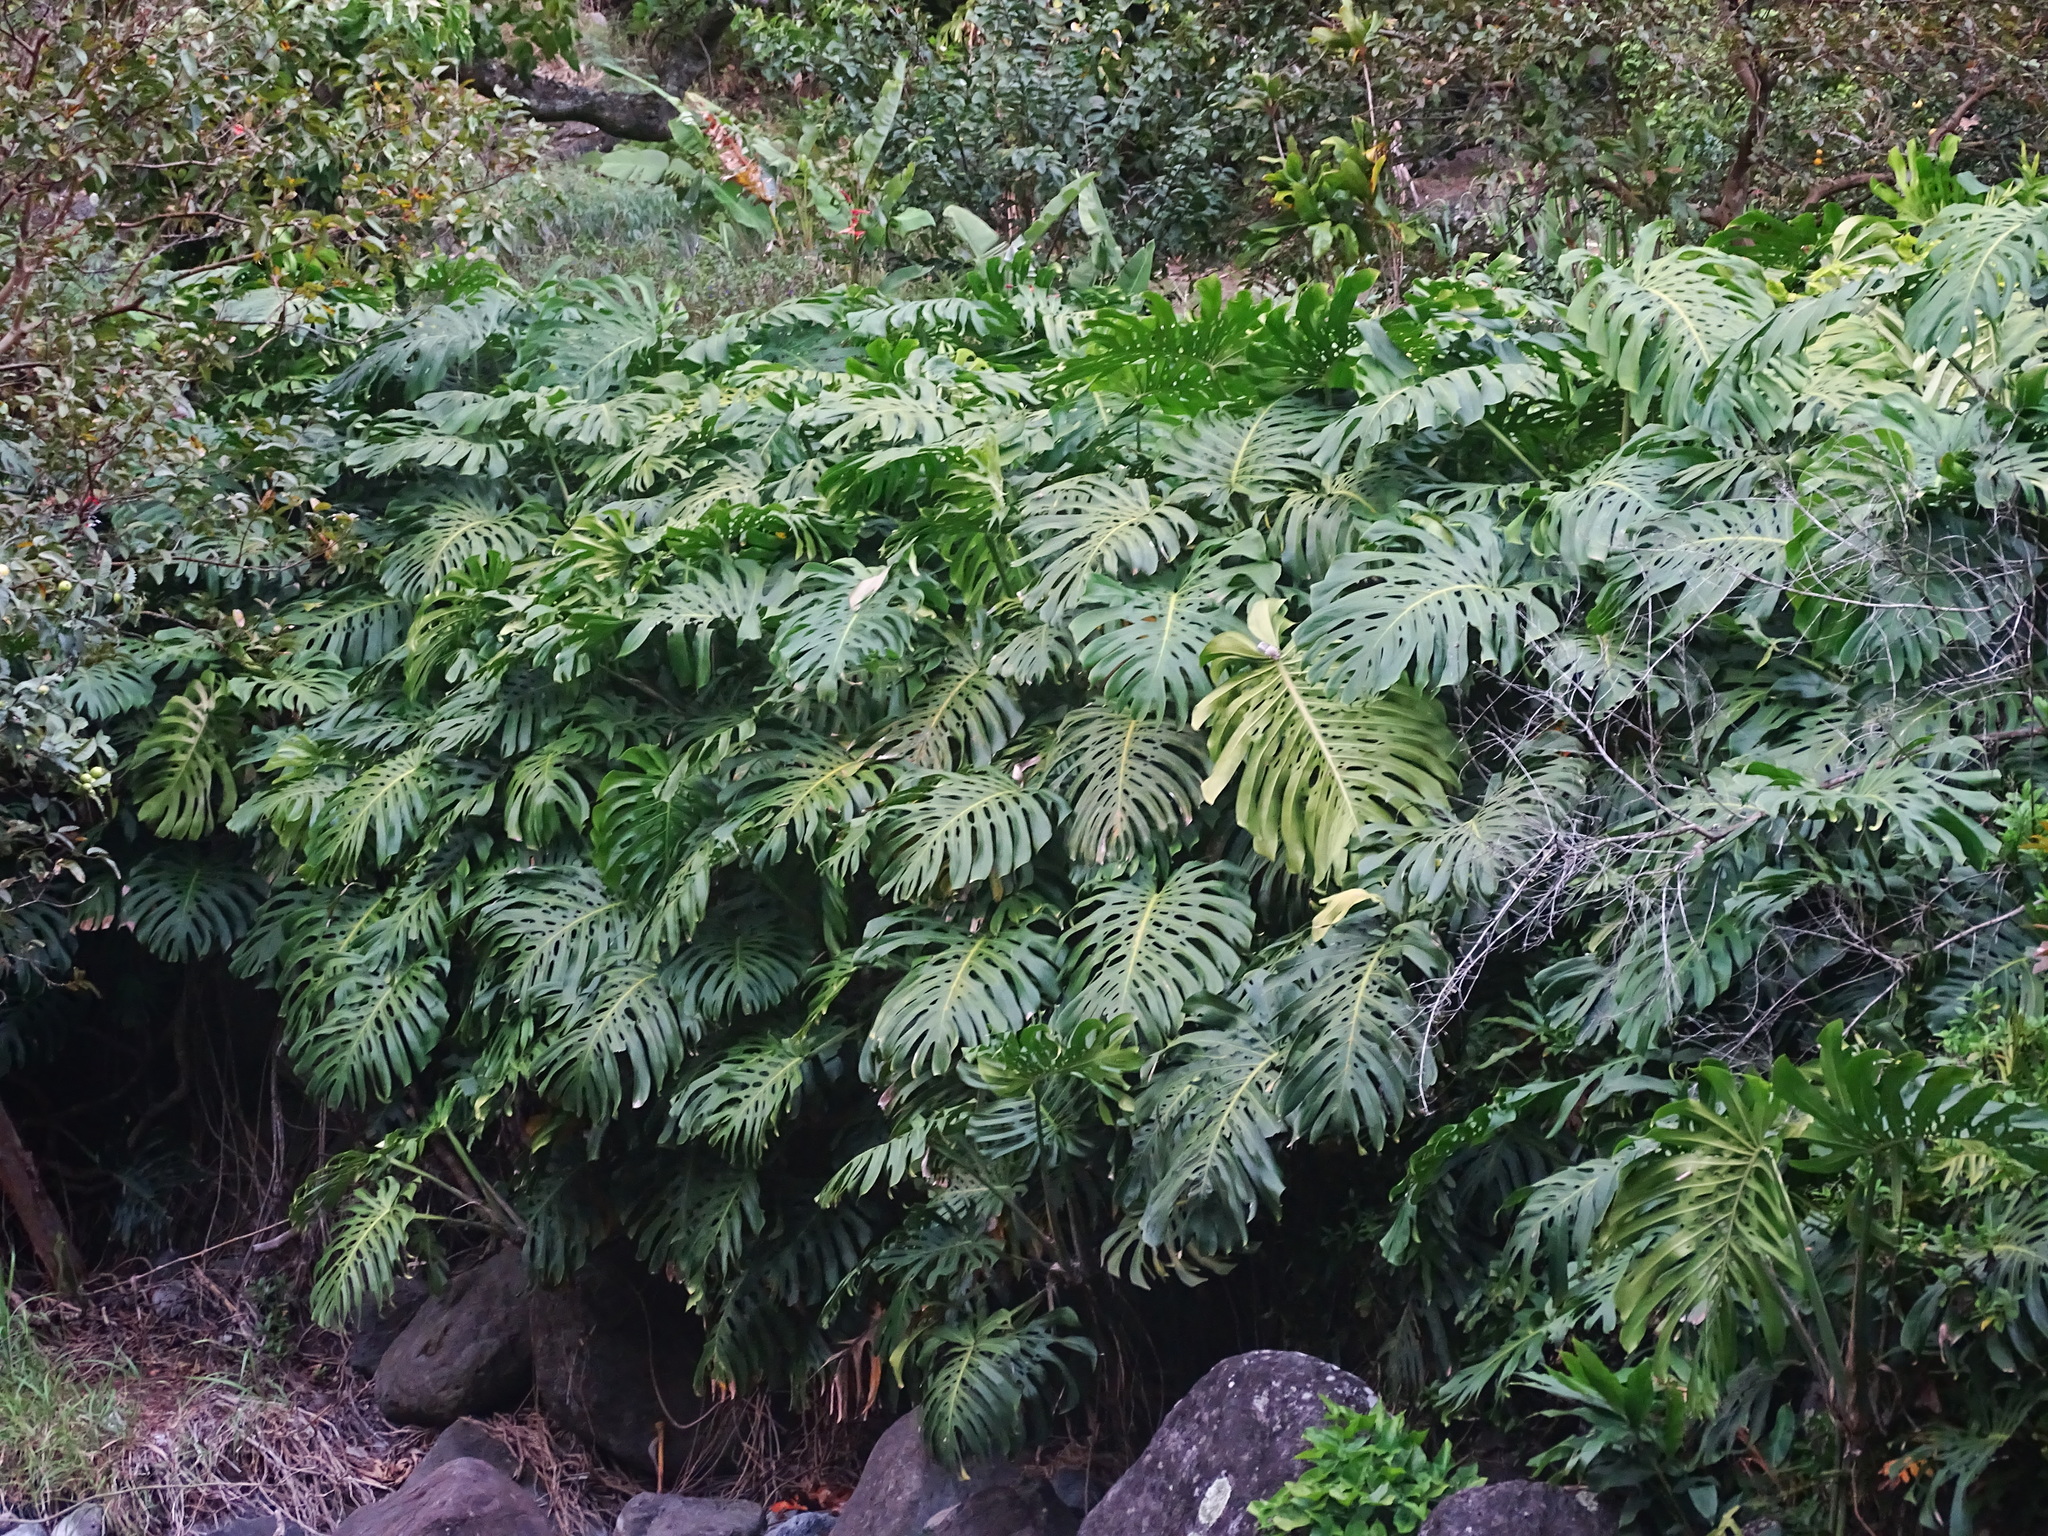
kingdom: Plantae
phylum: Tracheophyta
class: Liliopsida
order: Alismatales
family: Araceae
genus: Monstera
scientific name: Monstera deliciosa
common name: Cut-leaf-philodendron
